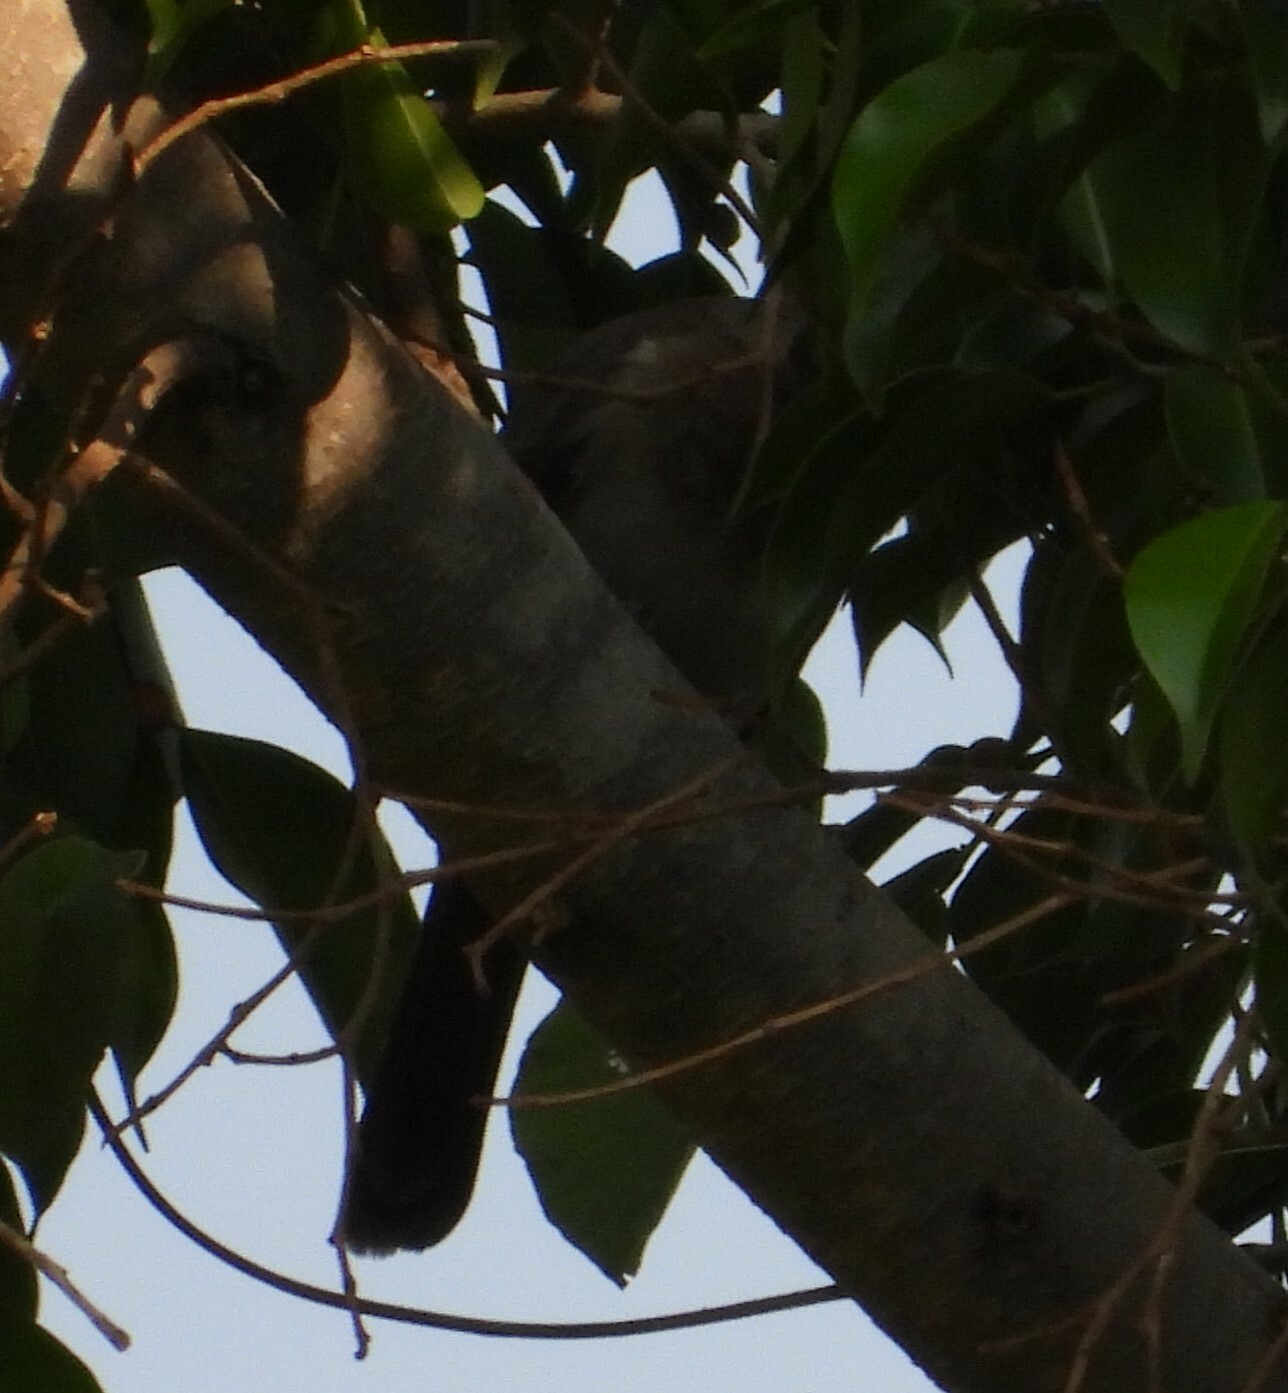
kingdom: Animalia
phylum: Chordata
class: Aves
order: Passeriformes
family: Pycnonotidae
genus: Pycnonotus
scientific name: Pycnonotus barbatus
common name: Common bulbul
